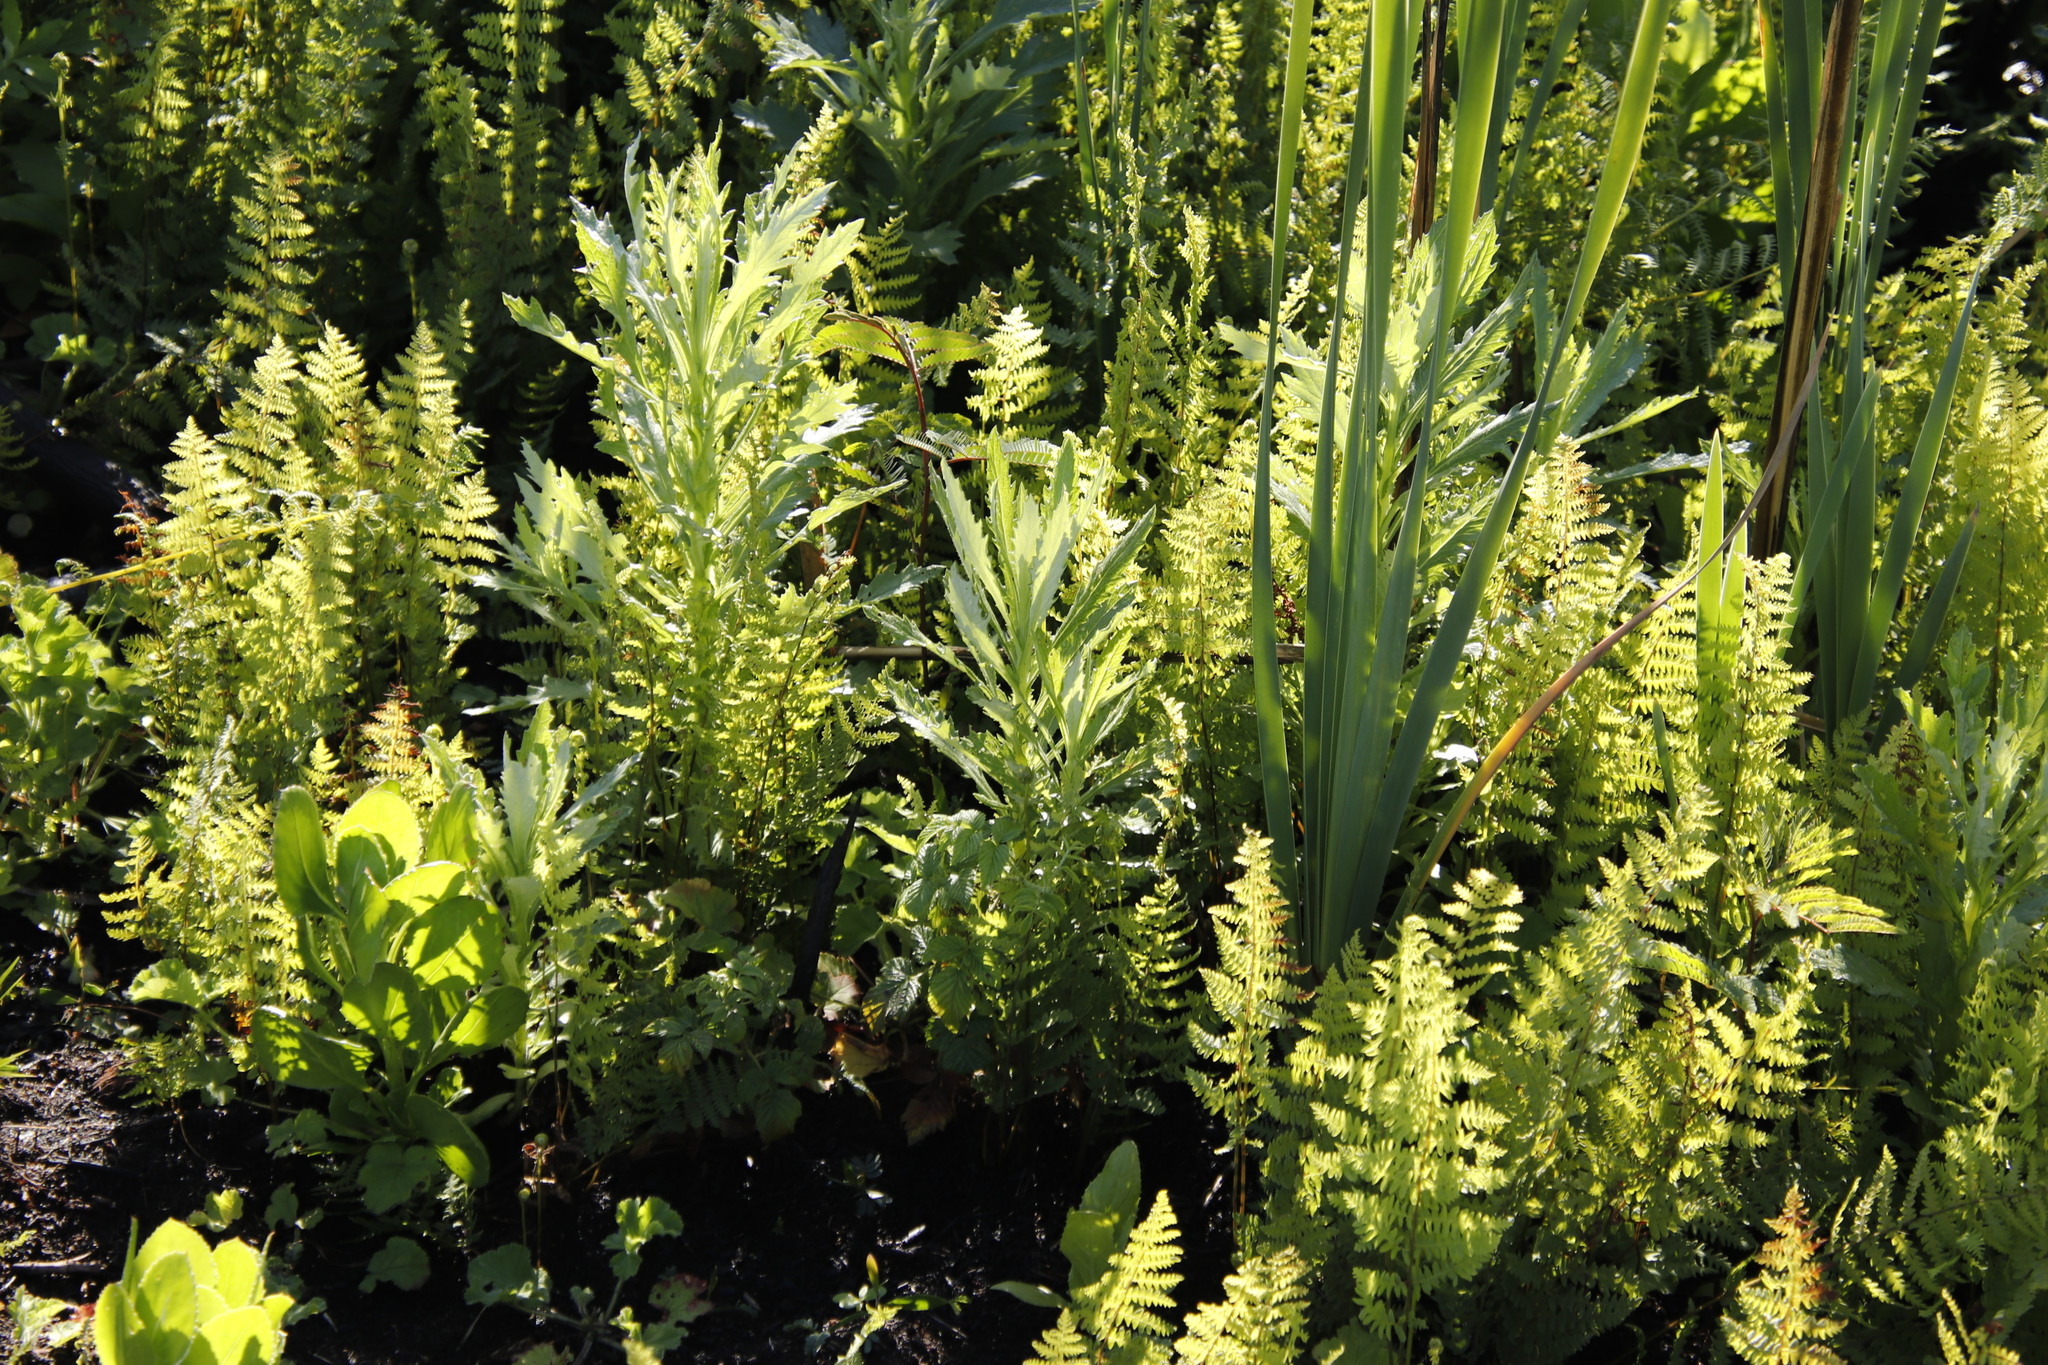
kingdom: Plantae
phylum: Tracheophyta
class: Magnoliopsida
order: Asterales
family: Asteraceae
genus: Senecio
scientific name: Senecio pterophorus
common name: Shoddy ragwort
